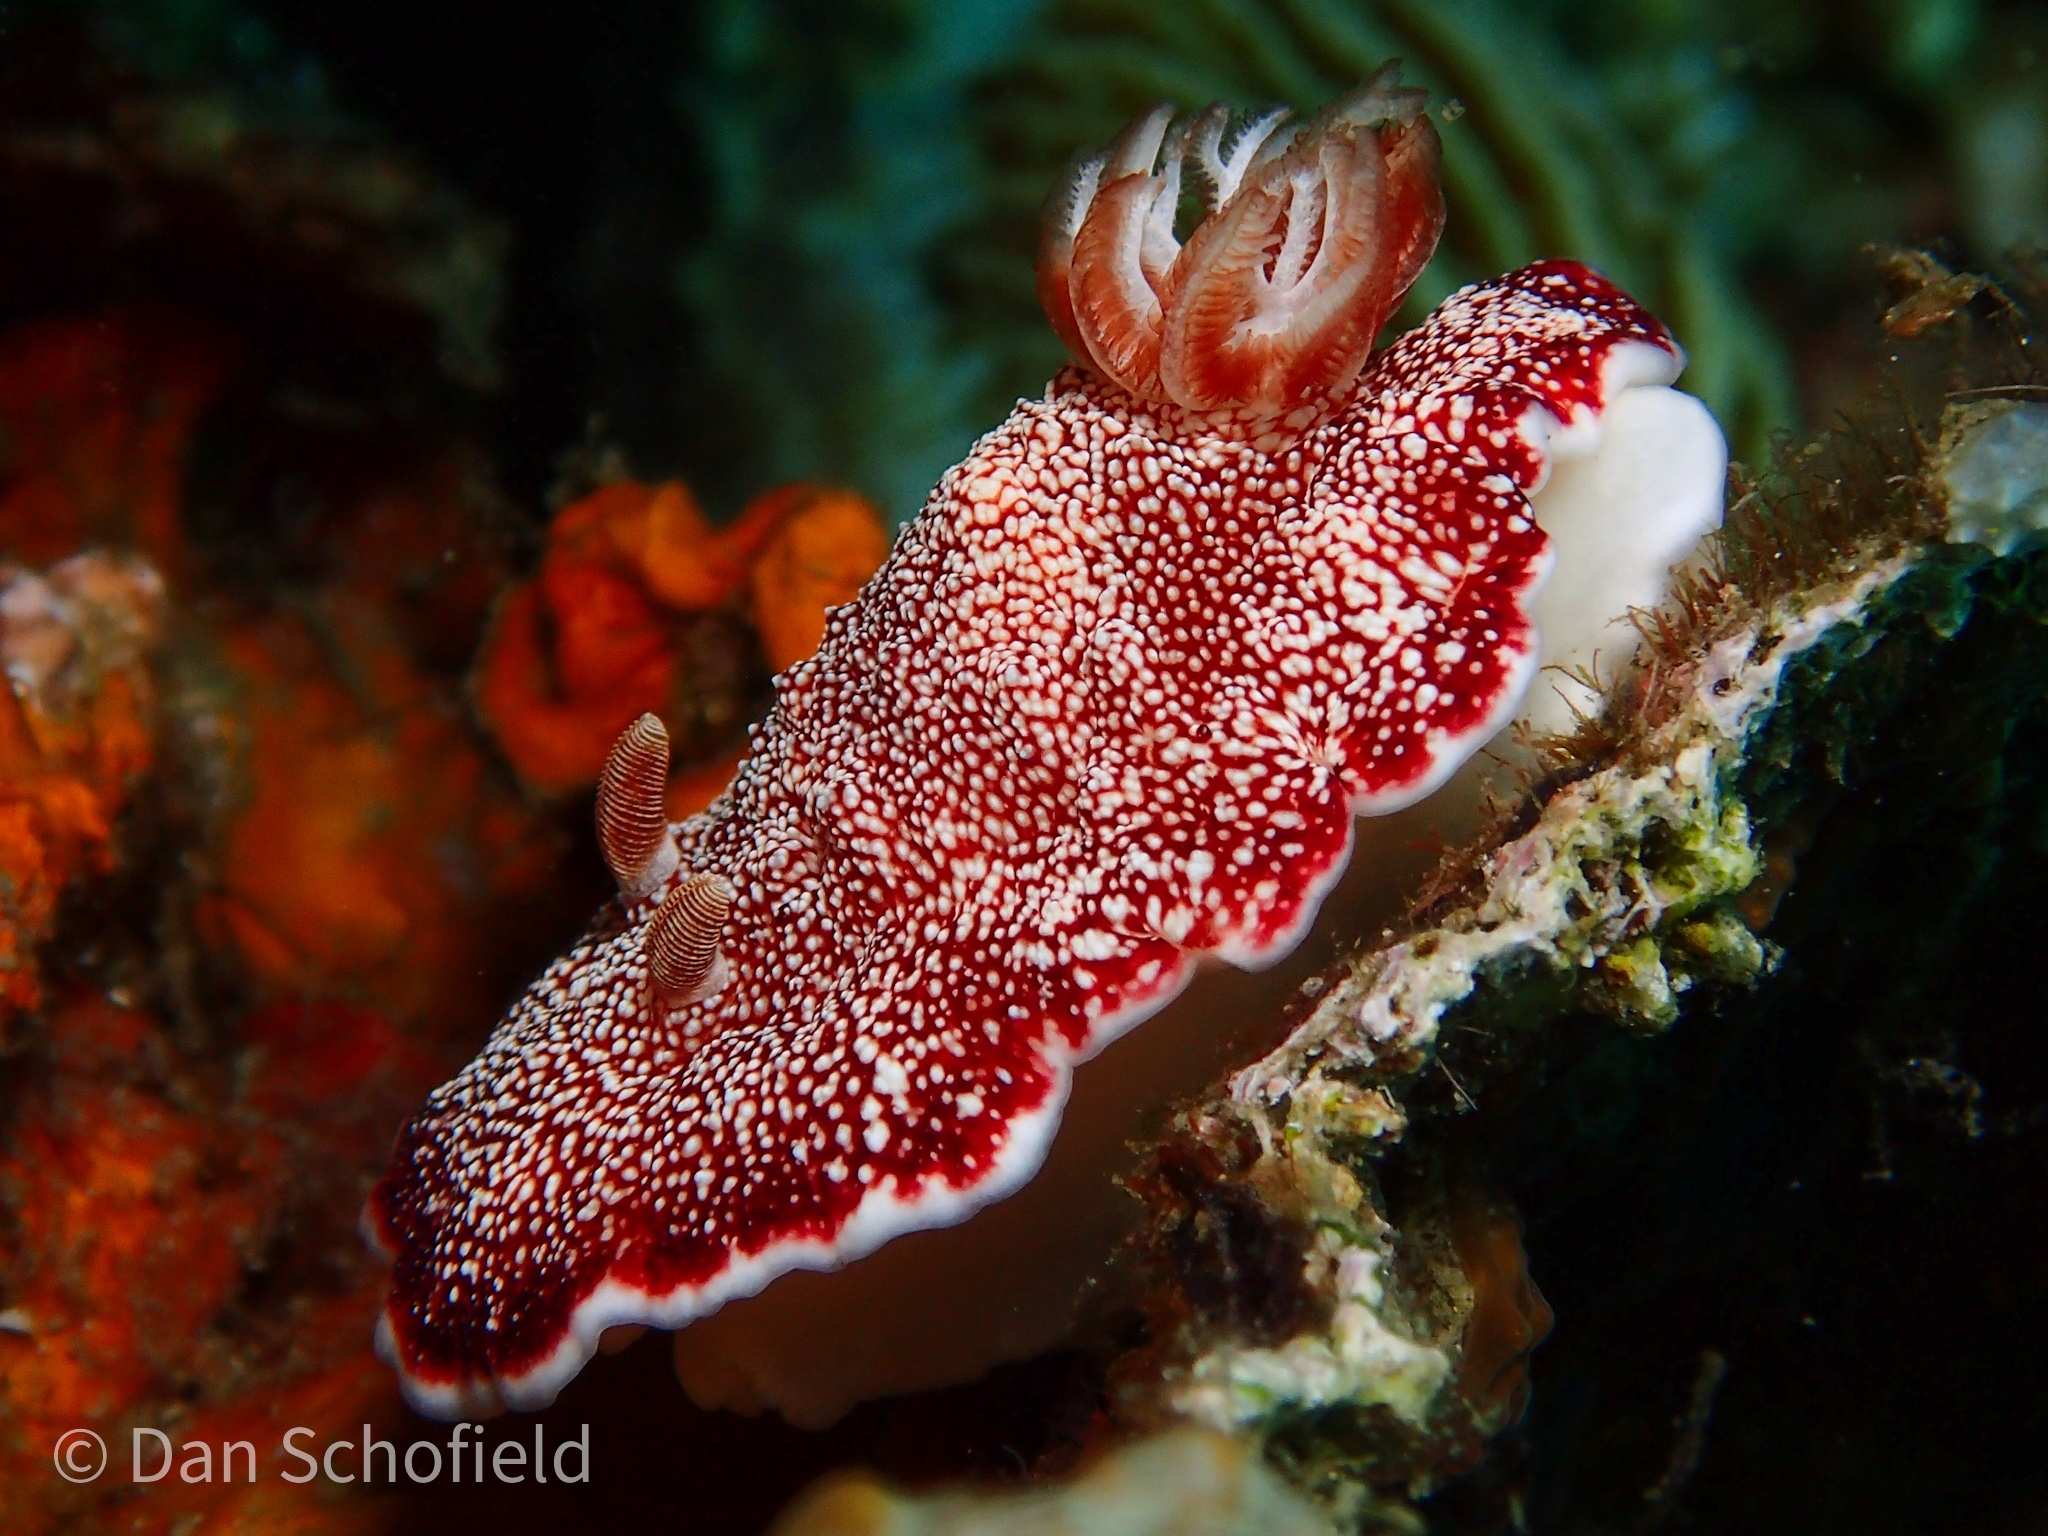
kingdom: Animalia
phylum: Mollusca
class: Gastropoda
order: Nudibranchia
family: Chromodorididae
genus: Goniobranchus
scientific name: Goniobranchus reticulatus
